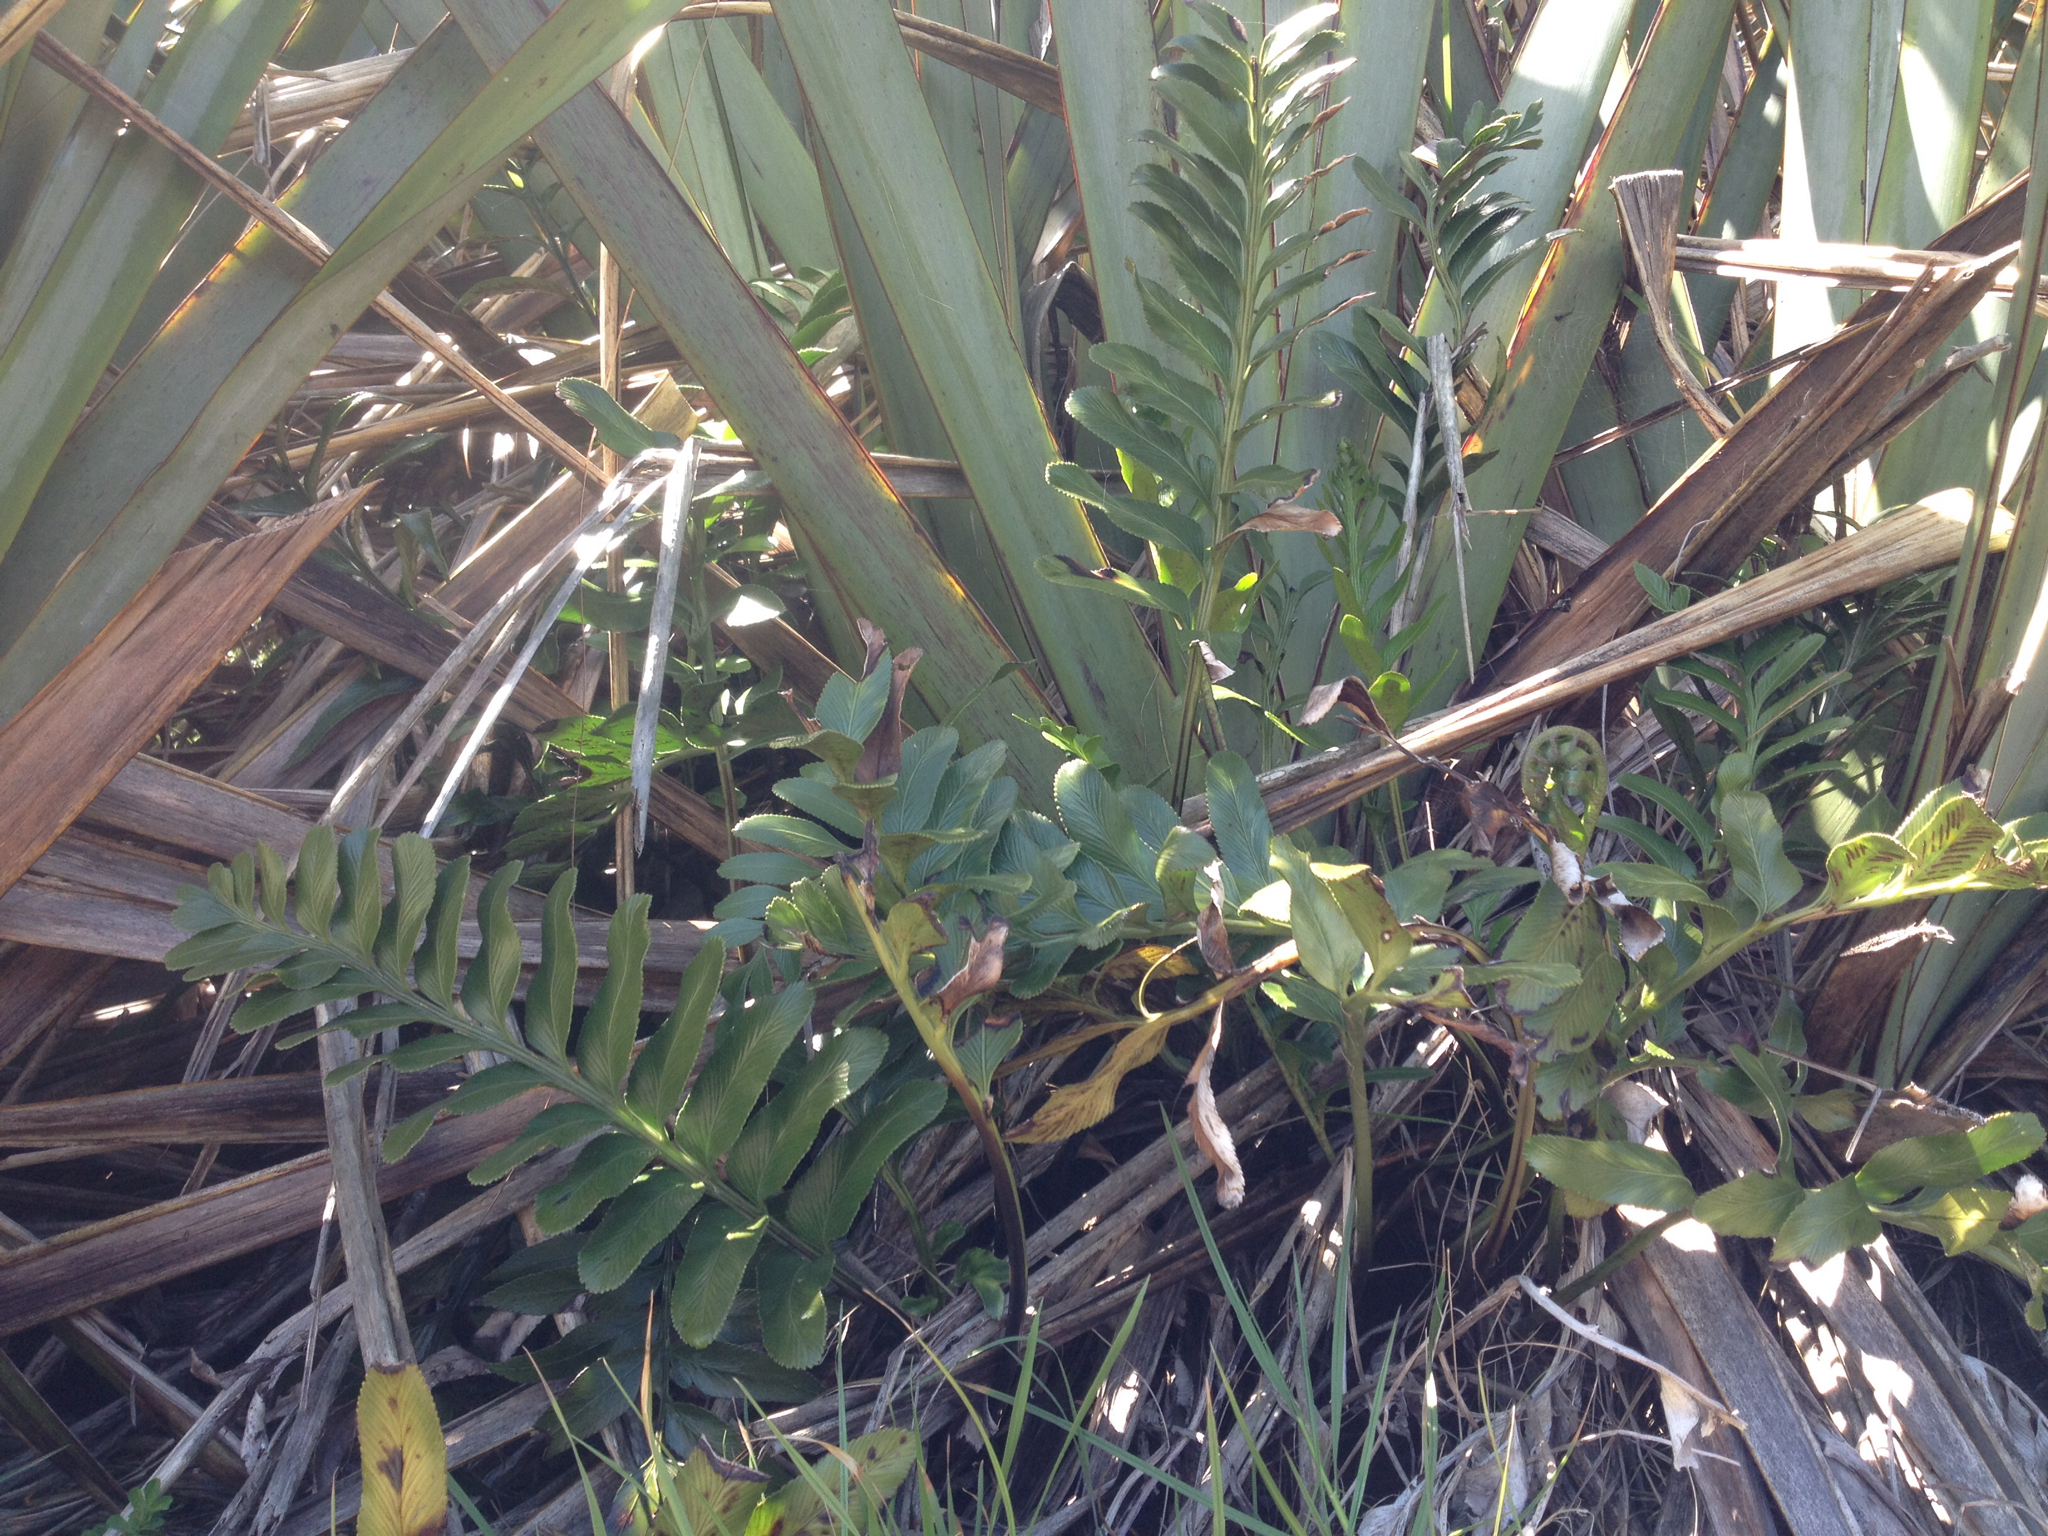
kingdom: Plantae
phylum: Tracheophyta
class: Polypodiopsida
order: Polypodiales
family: Aspleniaceae
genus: Asplenium
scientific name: Asplenium obtusatum
